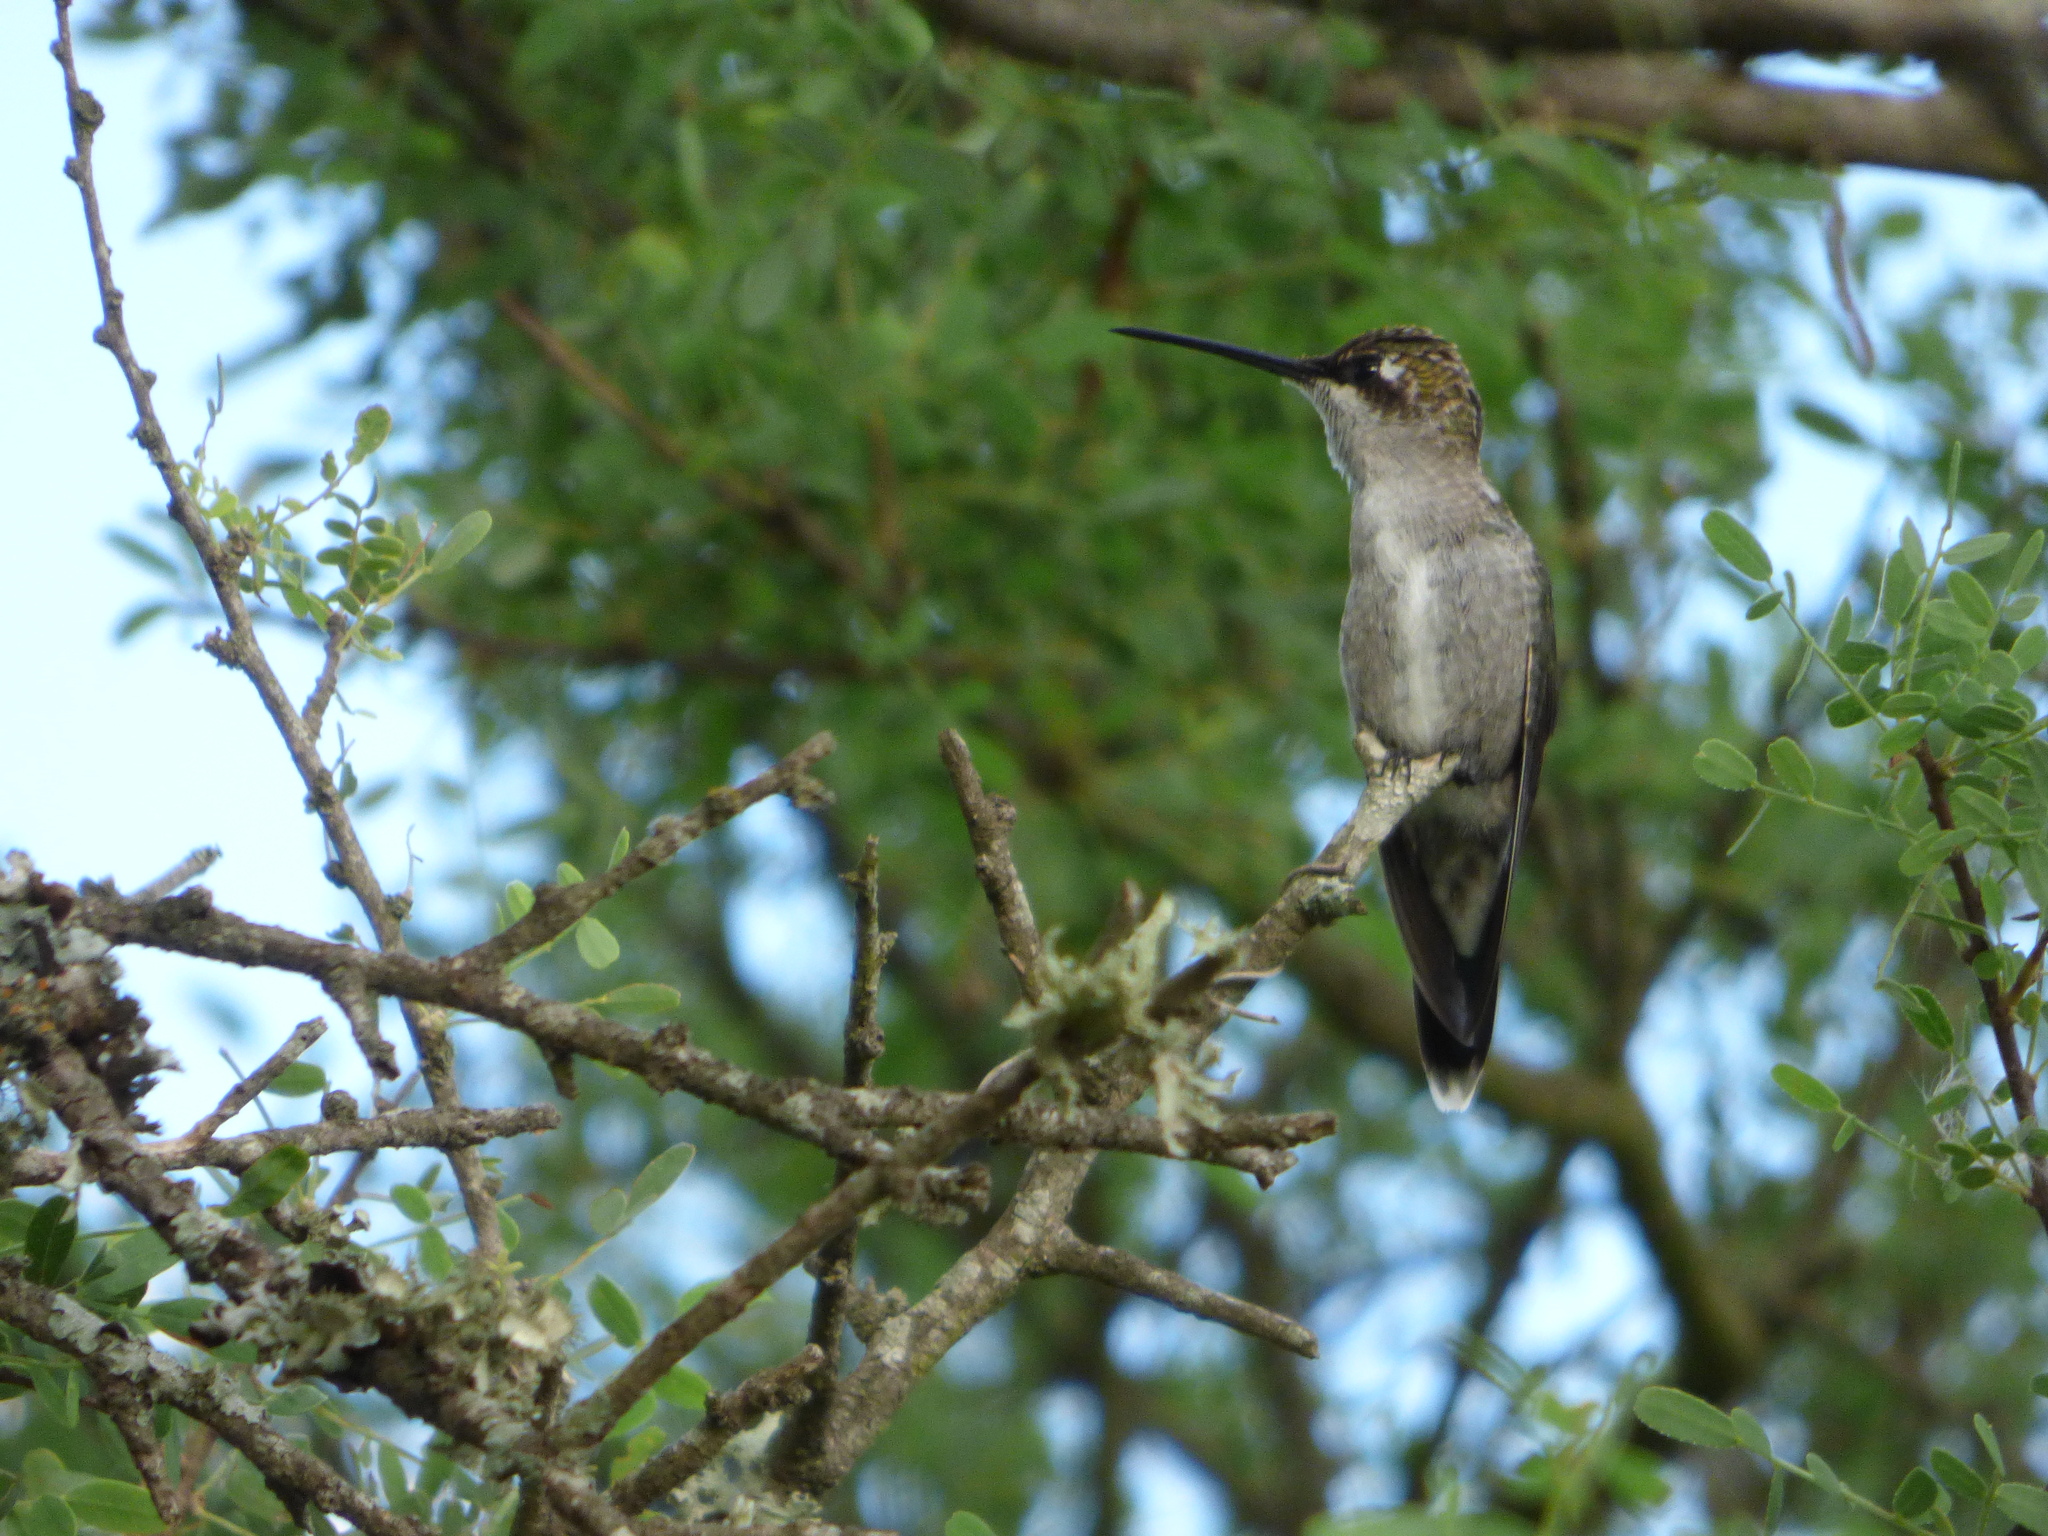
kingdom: Animalia
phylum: Chordata
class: Aves
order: Apodiformes
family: Trochilidae
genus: Heliomaster
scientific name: Heliomaster furcifer
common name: Blue-tufted starthroat
